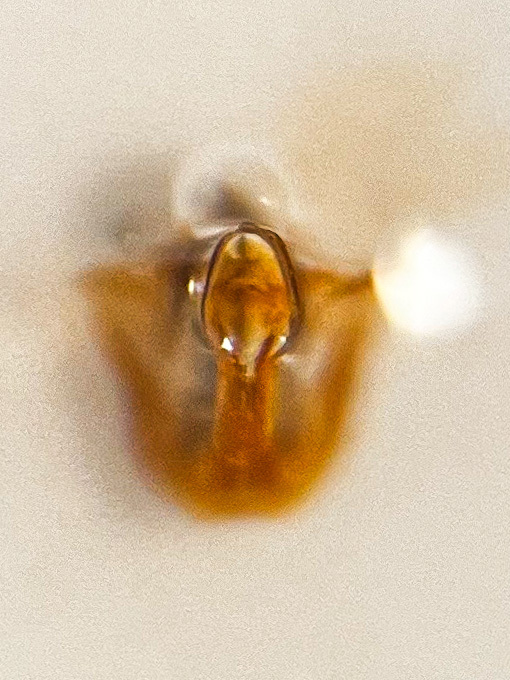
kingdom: Animalia
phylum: Arthropoda
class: Insecta
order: Hemiptera
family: Cicadellidae
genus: Psammotettix
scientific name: Psammotettix alienus
